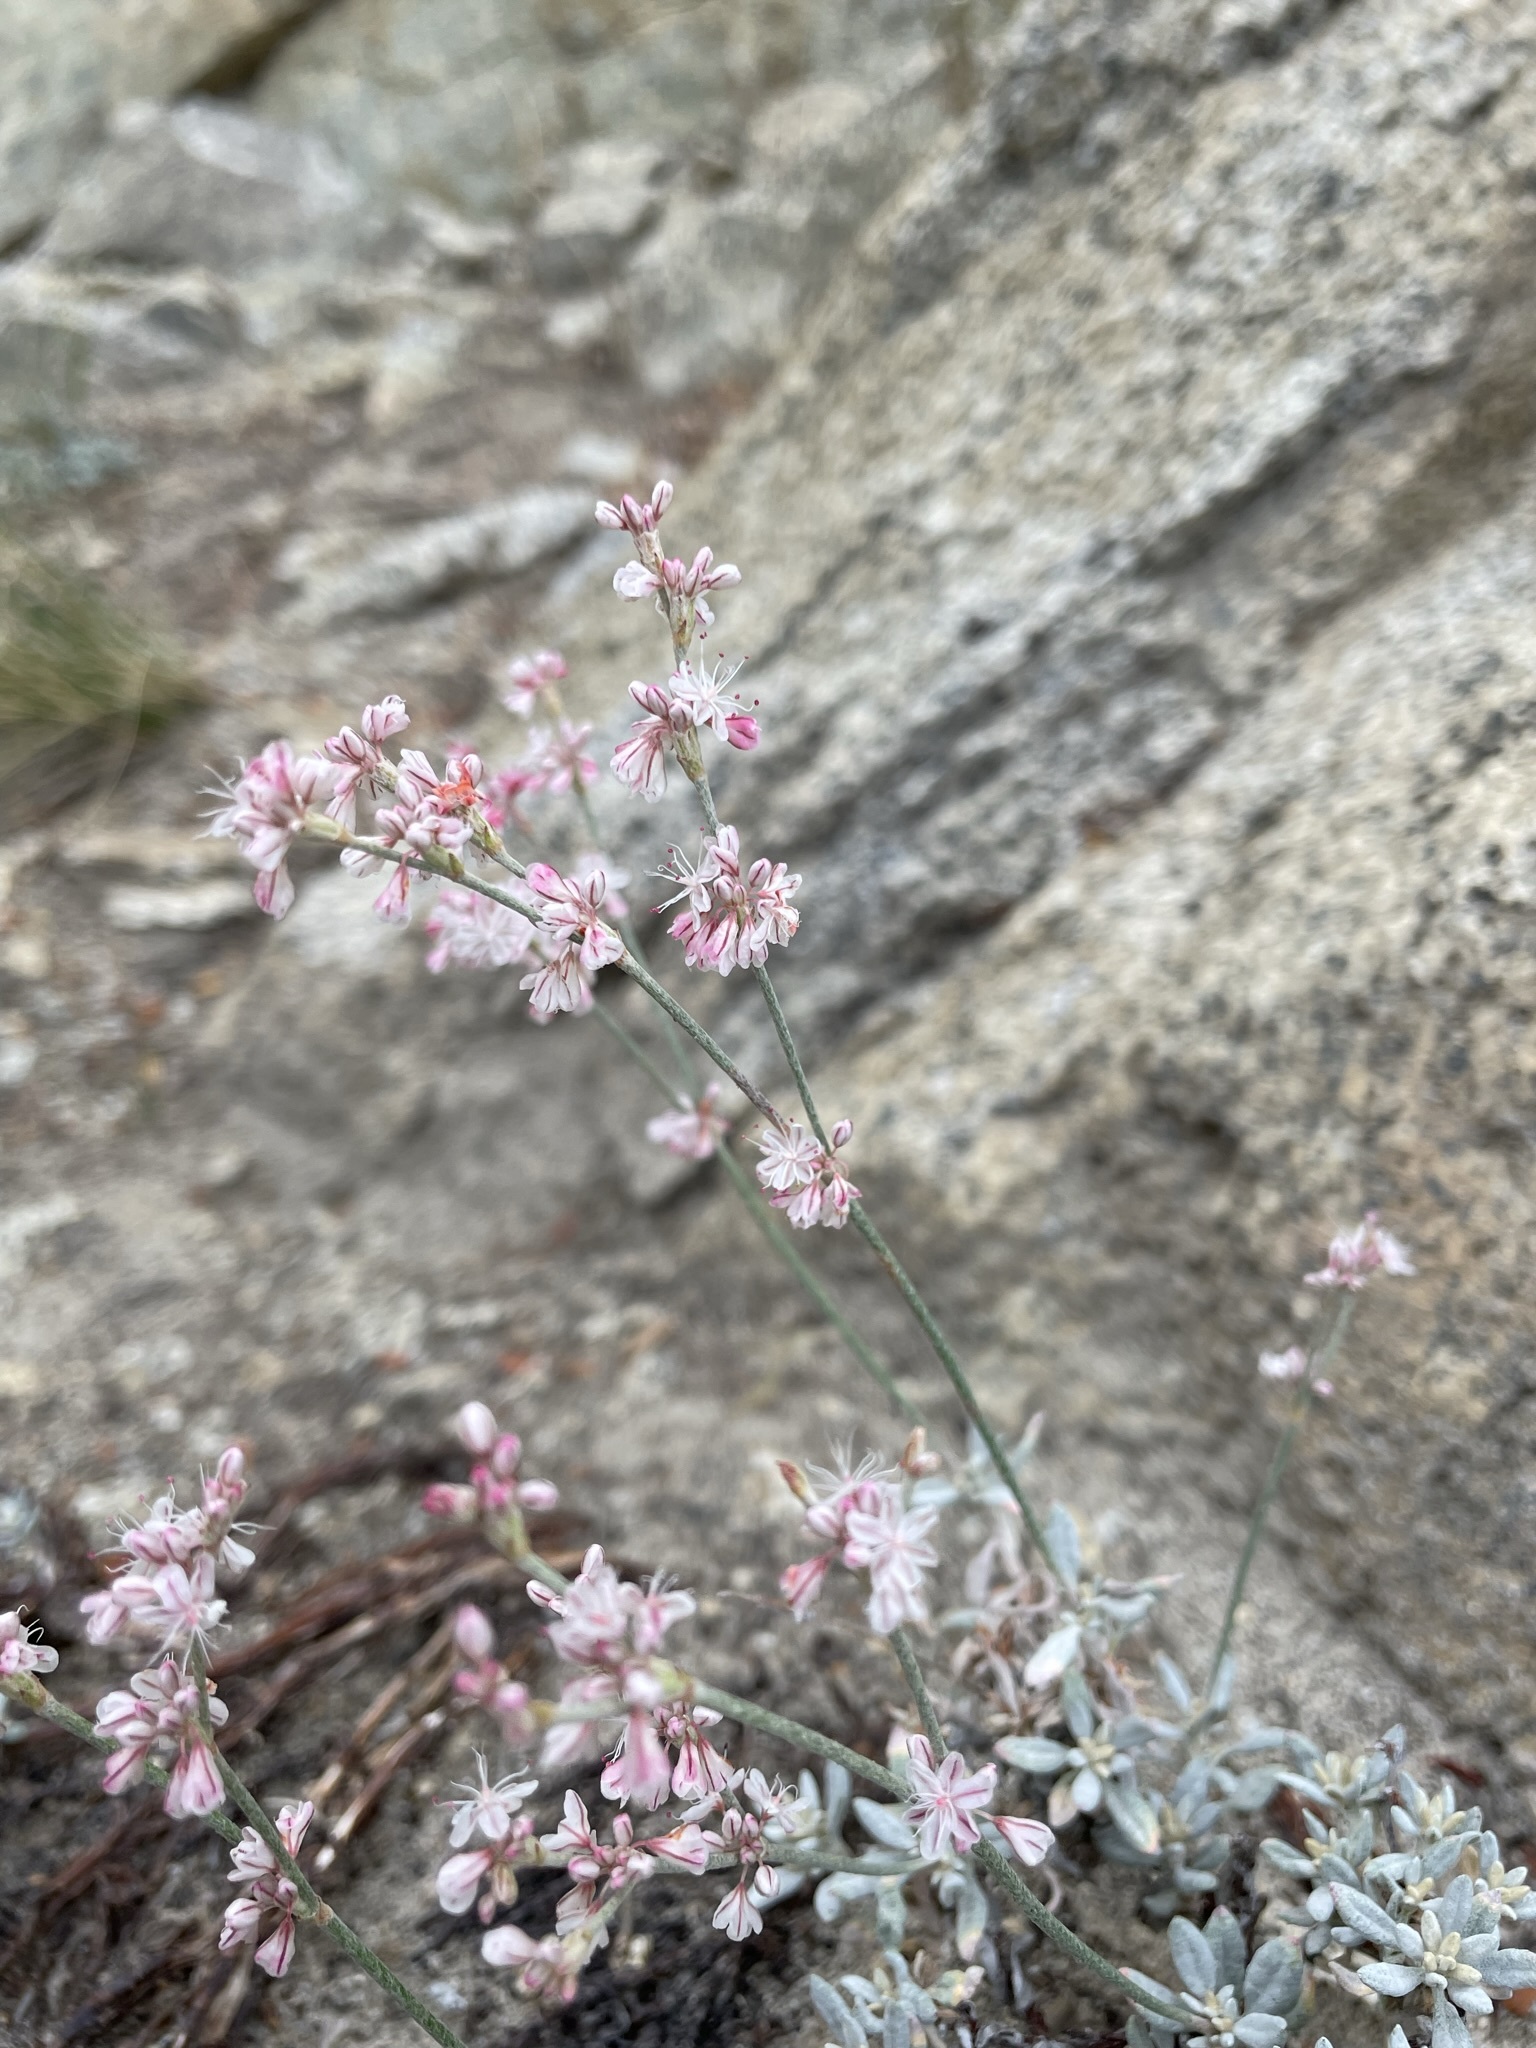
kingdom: Plantae
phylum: Tracheophyta
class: Magnoliopsida
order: Caryophyllales
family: Polygonaceae
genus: Eriogonum
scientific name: Eriogonum wrightii
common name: Bastard-sage
